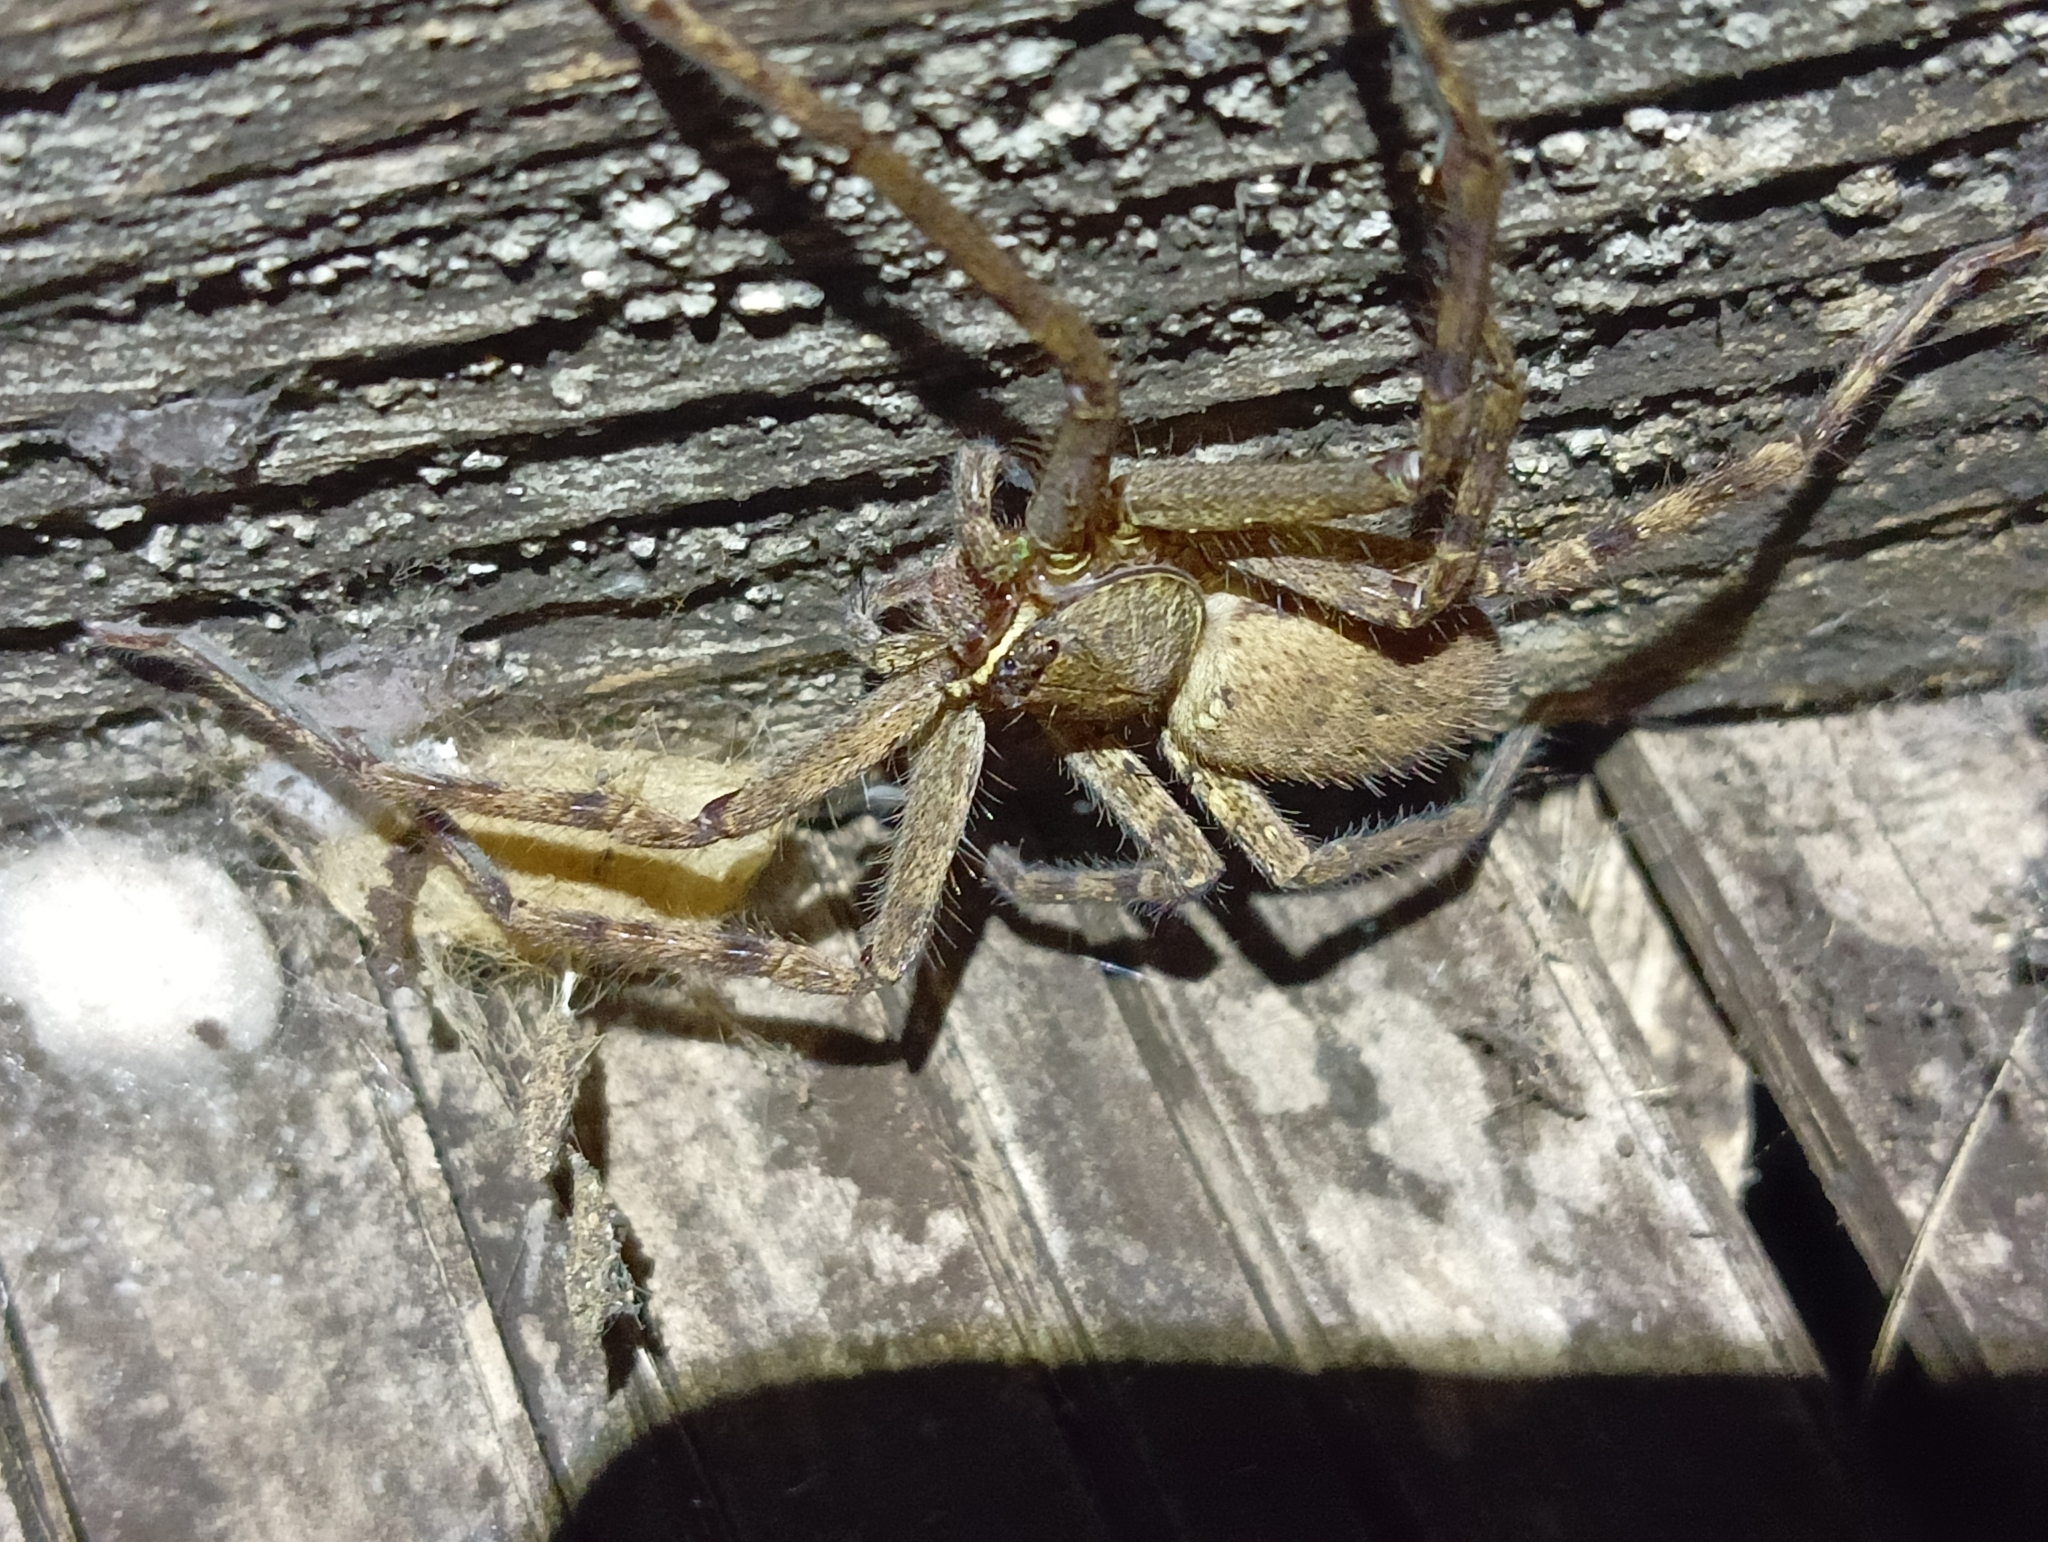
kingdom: Animalia
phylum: Arthropoda
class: Arachnida
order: Araneae
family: Sparassidae
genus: Heteropoda
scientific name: Heteropoda venatoria
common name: Huntsman spider
